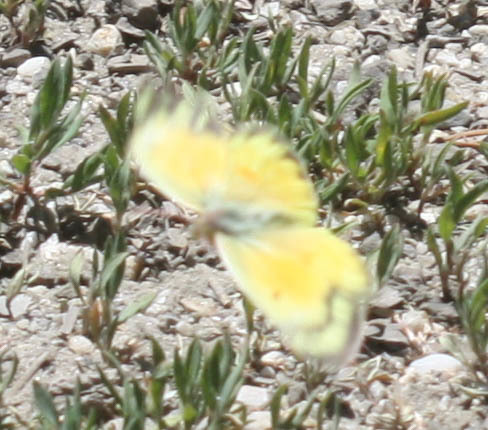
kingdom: Animalia
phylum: Arthropoda
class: Insecta
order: Lepidoptera
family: Pieridae
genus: Colias
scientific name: Colias eurytheme
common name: Alfalfa butterfly
